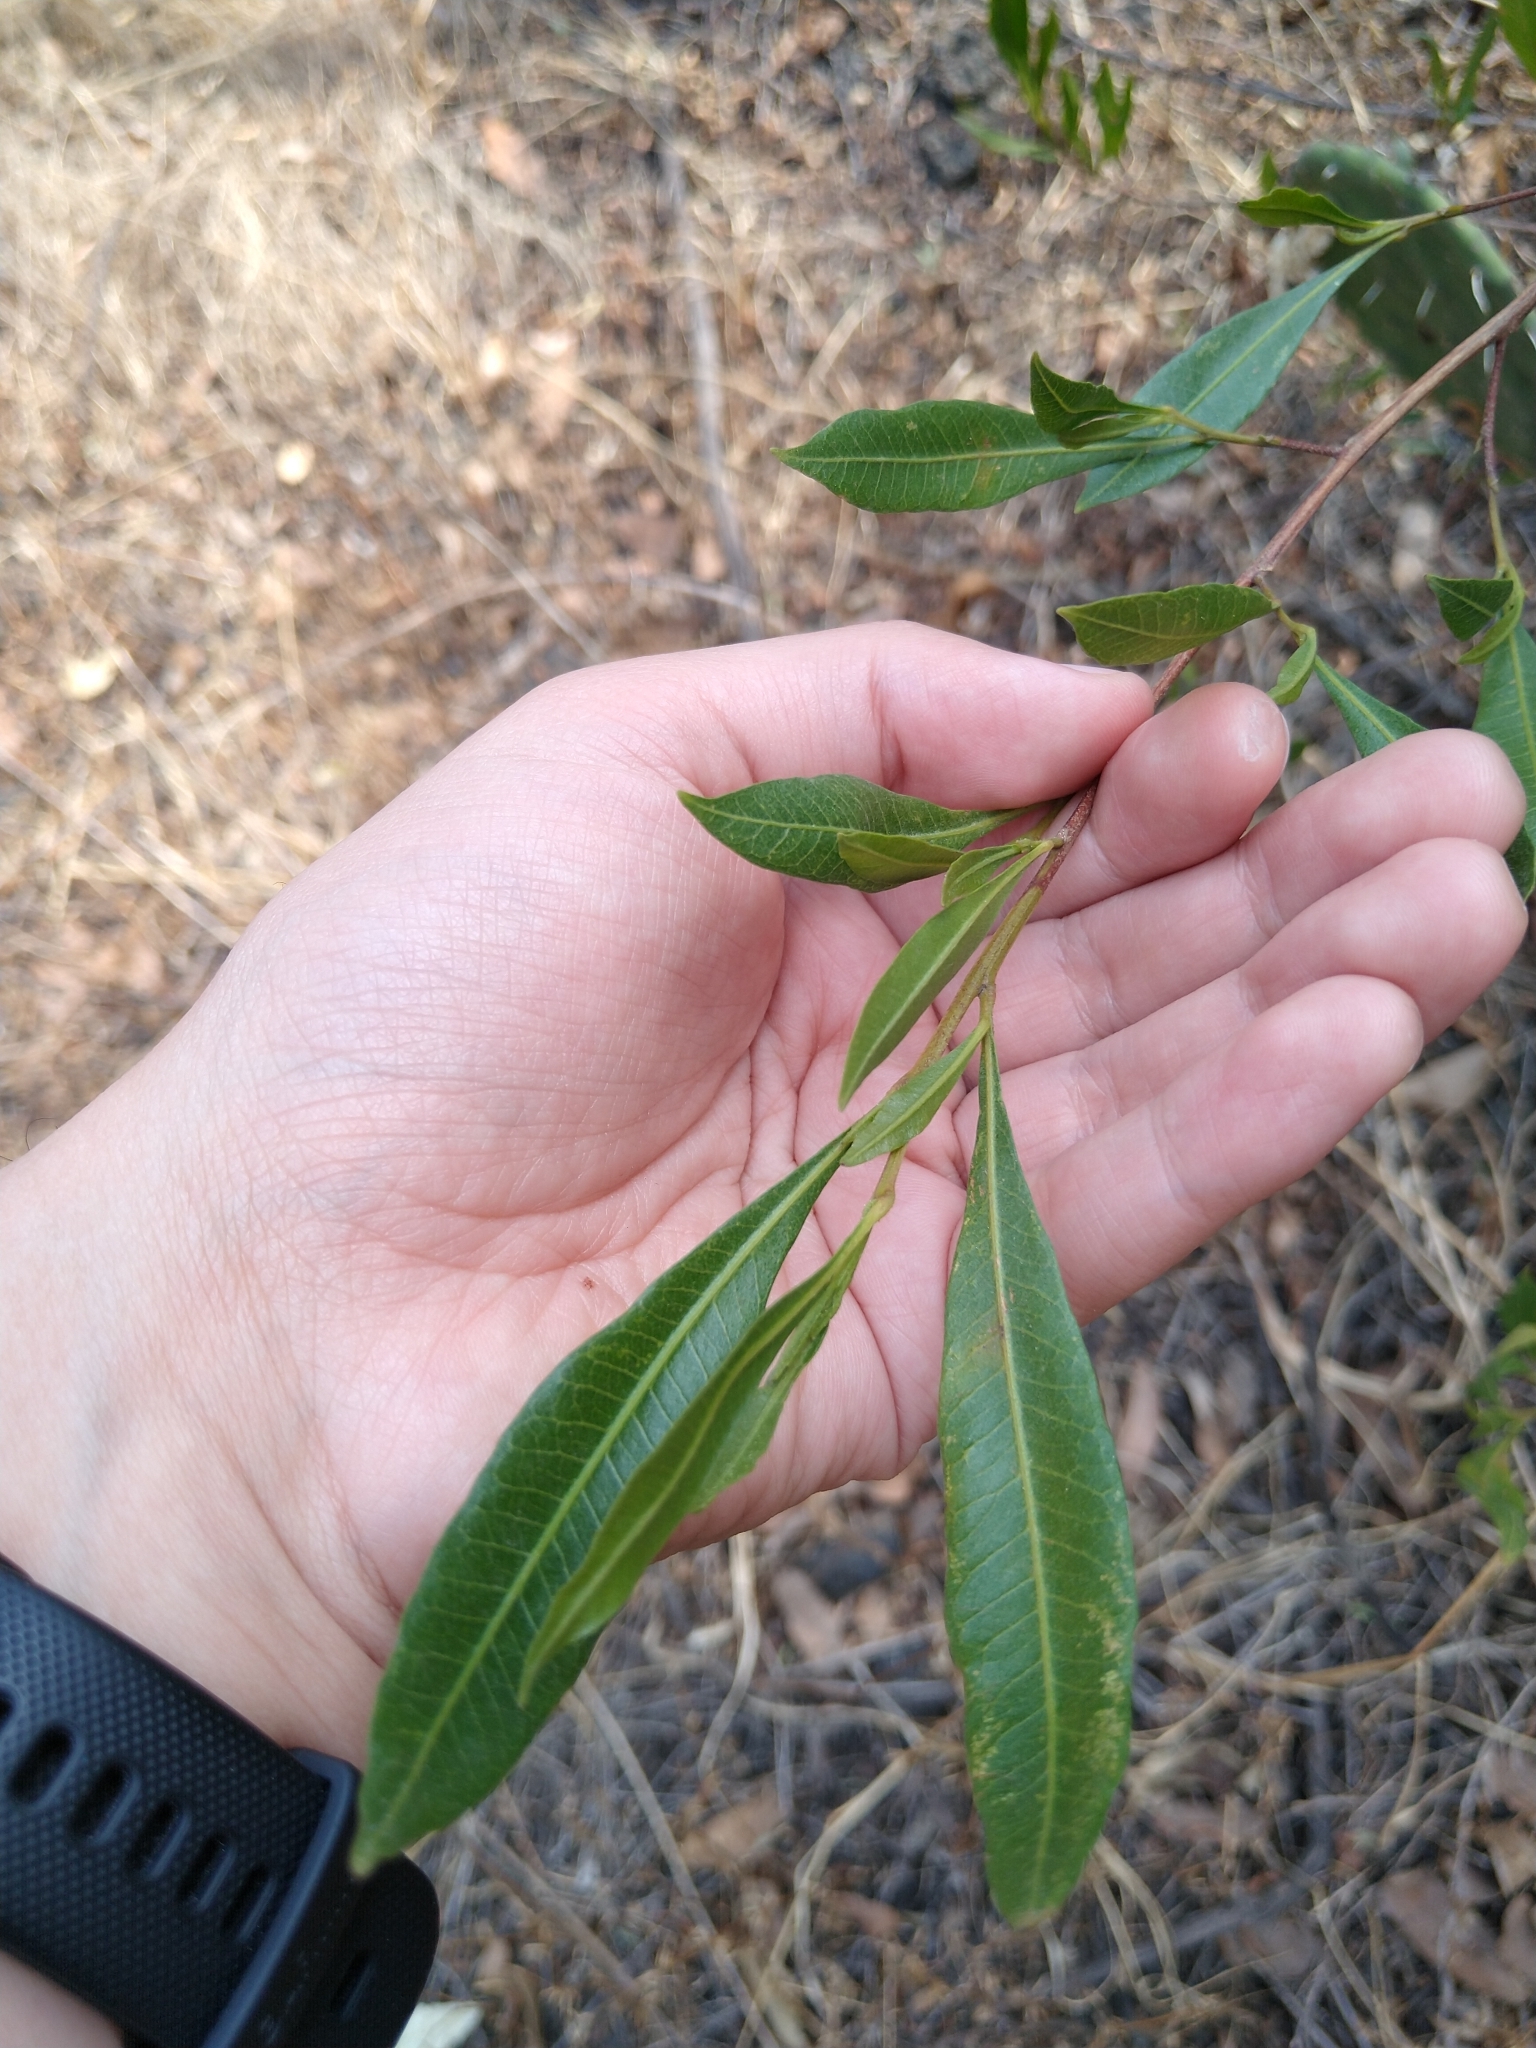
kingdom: Plantae
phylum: Tracheophyta
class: Magnoliopsida
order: Sapindales
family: Sapindaceae
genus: Dodonaea
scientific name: Dodonaea viscosa
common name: Hopbush
